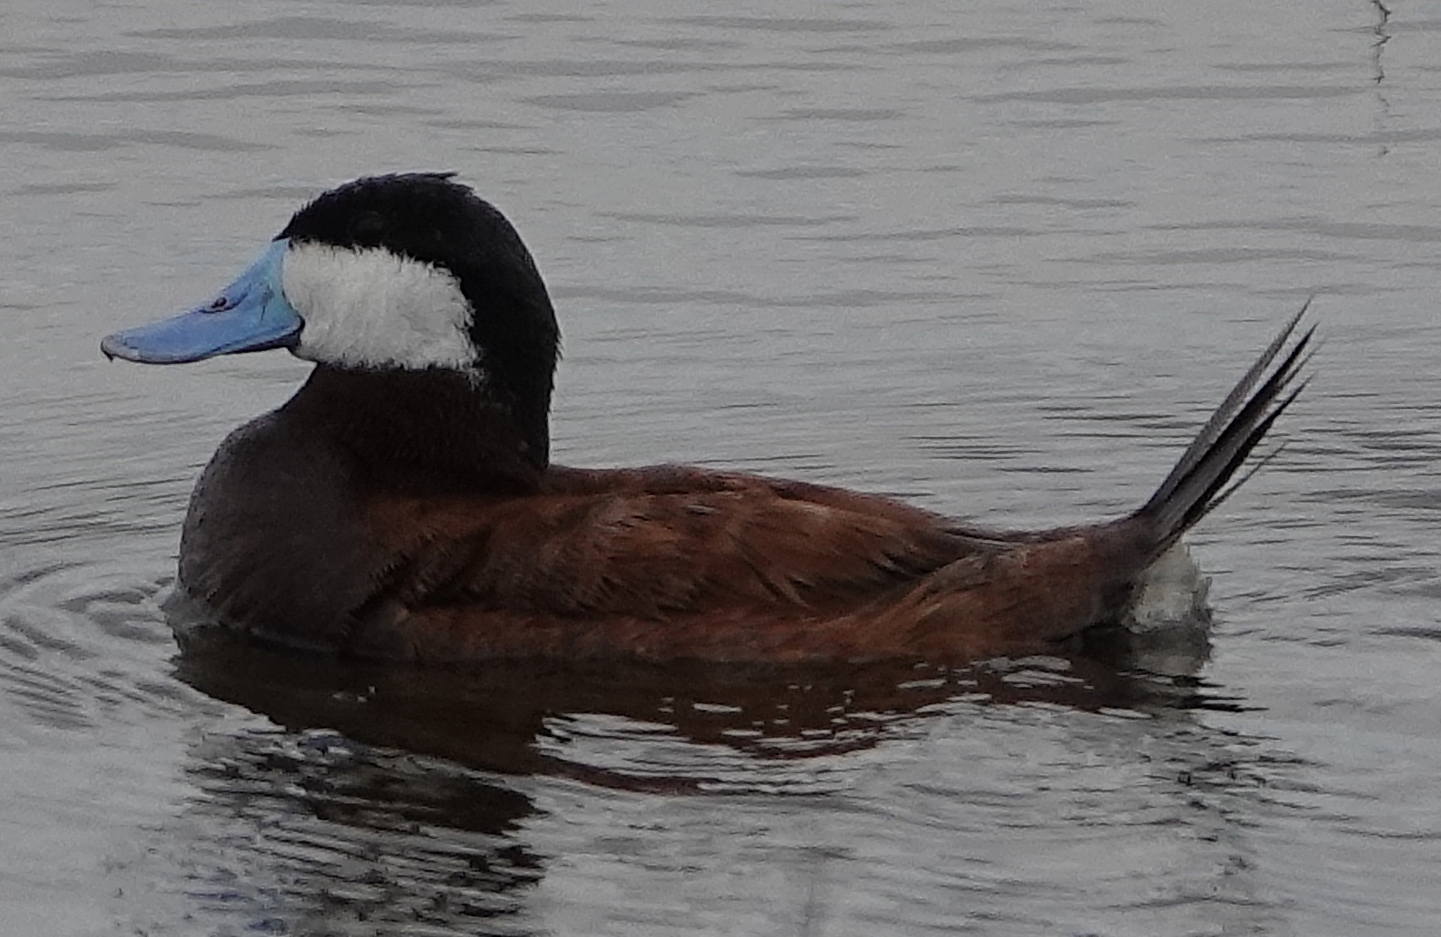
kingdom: Animalia
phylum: Chordata
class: Aves
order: Anseriformes
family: Anatidae
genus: Oxyura
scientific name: Oxyura jamaicensis
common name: Ruddy duck
